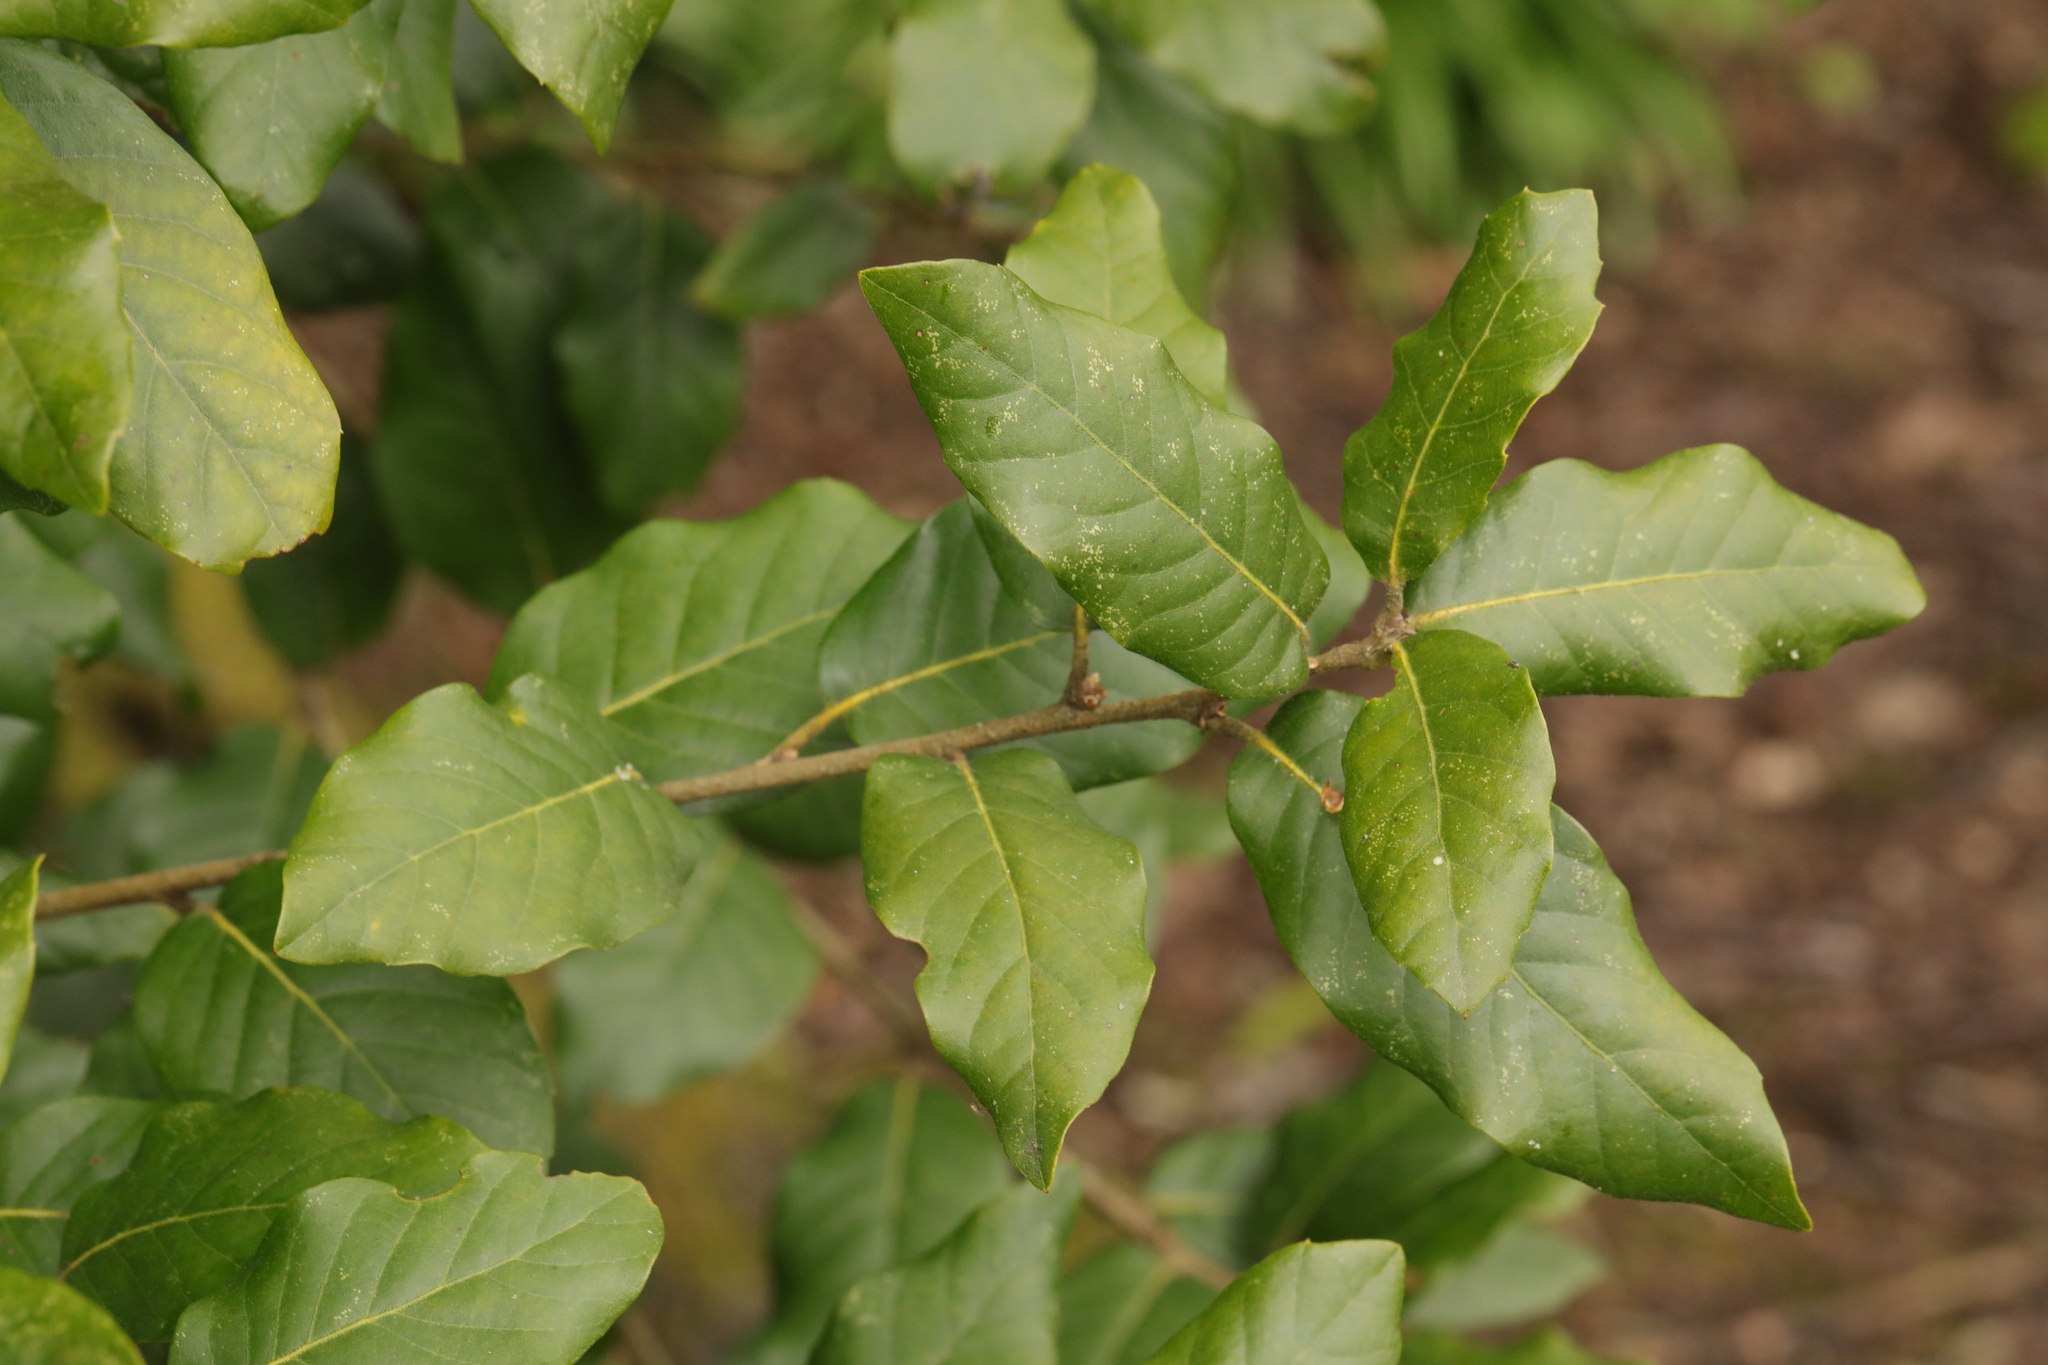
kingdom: Plantae
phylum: Tracheophyta
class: Magnoliopsida
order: Fagales
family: Fagaceae
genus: Quercus
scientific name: Quercus ilex
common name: Evergreen oak
